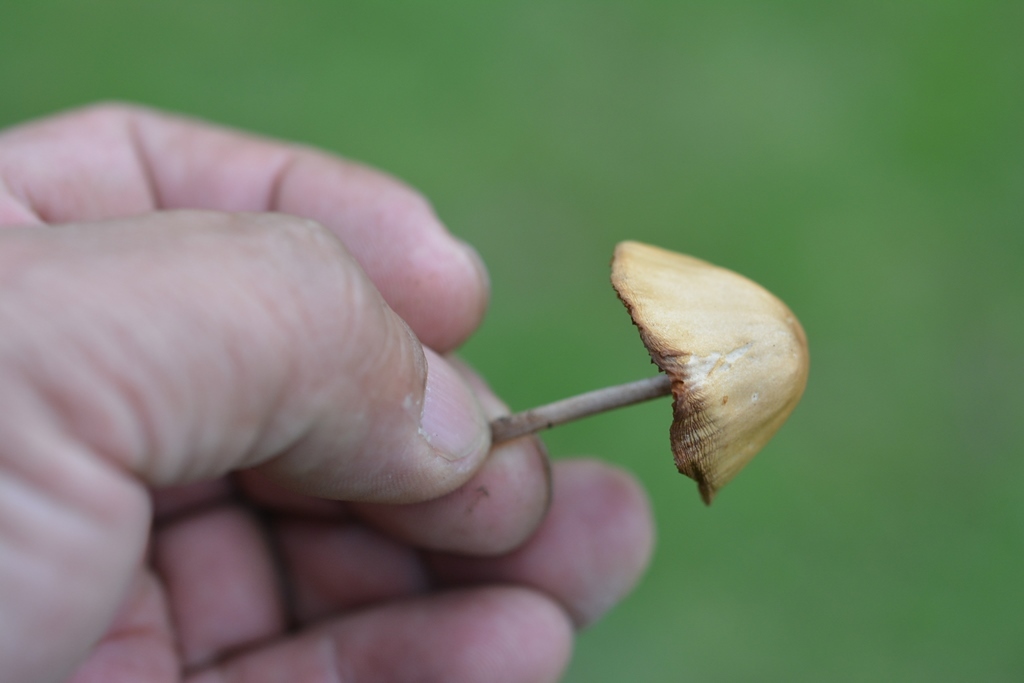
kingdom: Fungi
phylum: Basidiomycota
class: Agaricomycetes
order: Agaricales
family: Bolbitiaceae
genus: Conocybe
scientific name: Conocybe tenera
